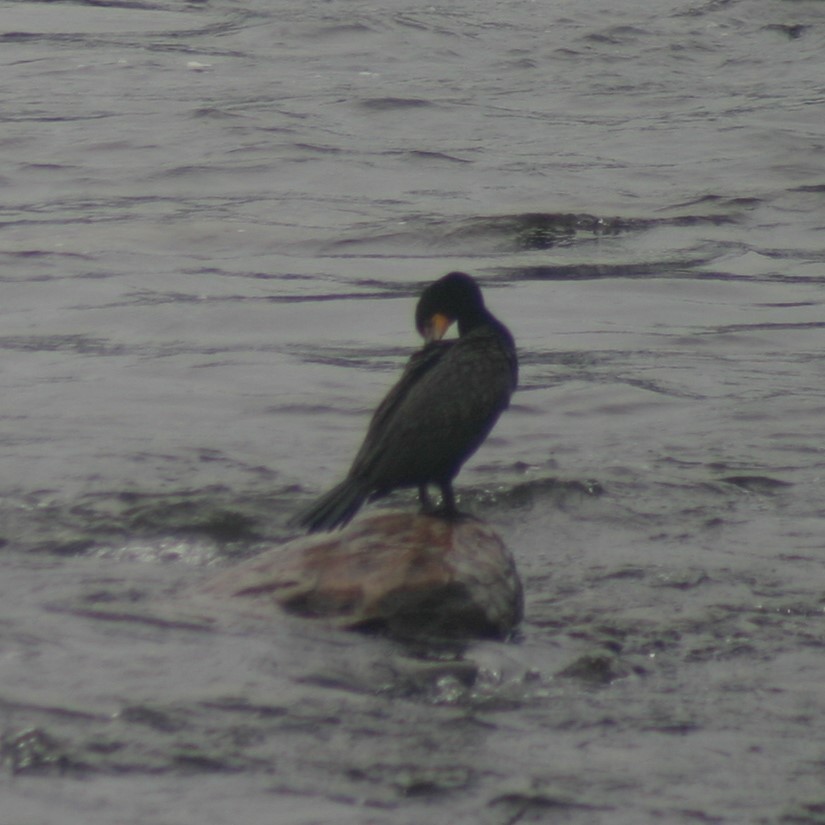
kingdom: Animalia
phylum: Chordata
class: Aves
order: Suliformes
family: Phalacrocoracidae
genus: Phalacrocorax
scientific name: Phalacrocorax auritus
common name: Double-crested cormorant
